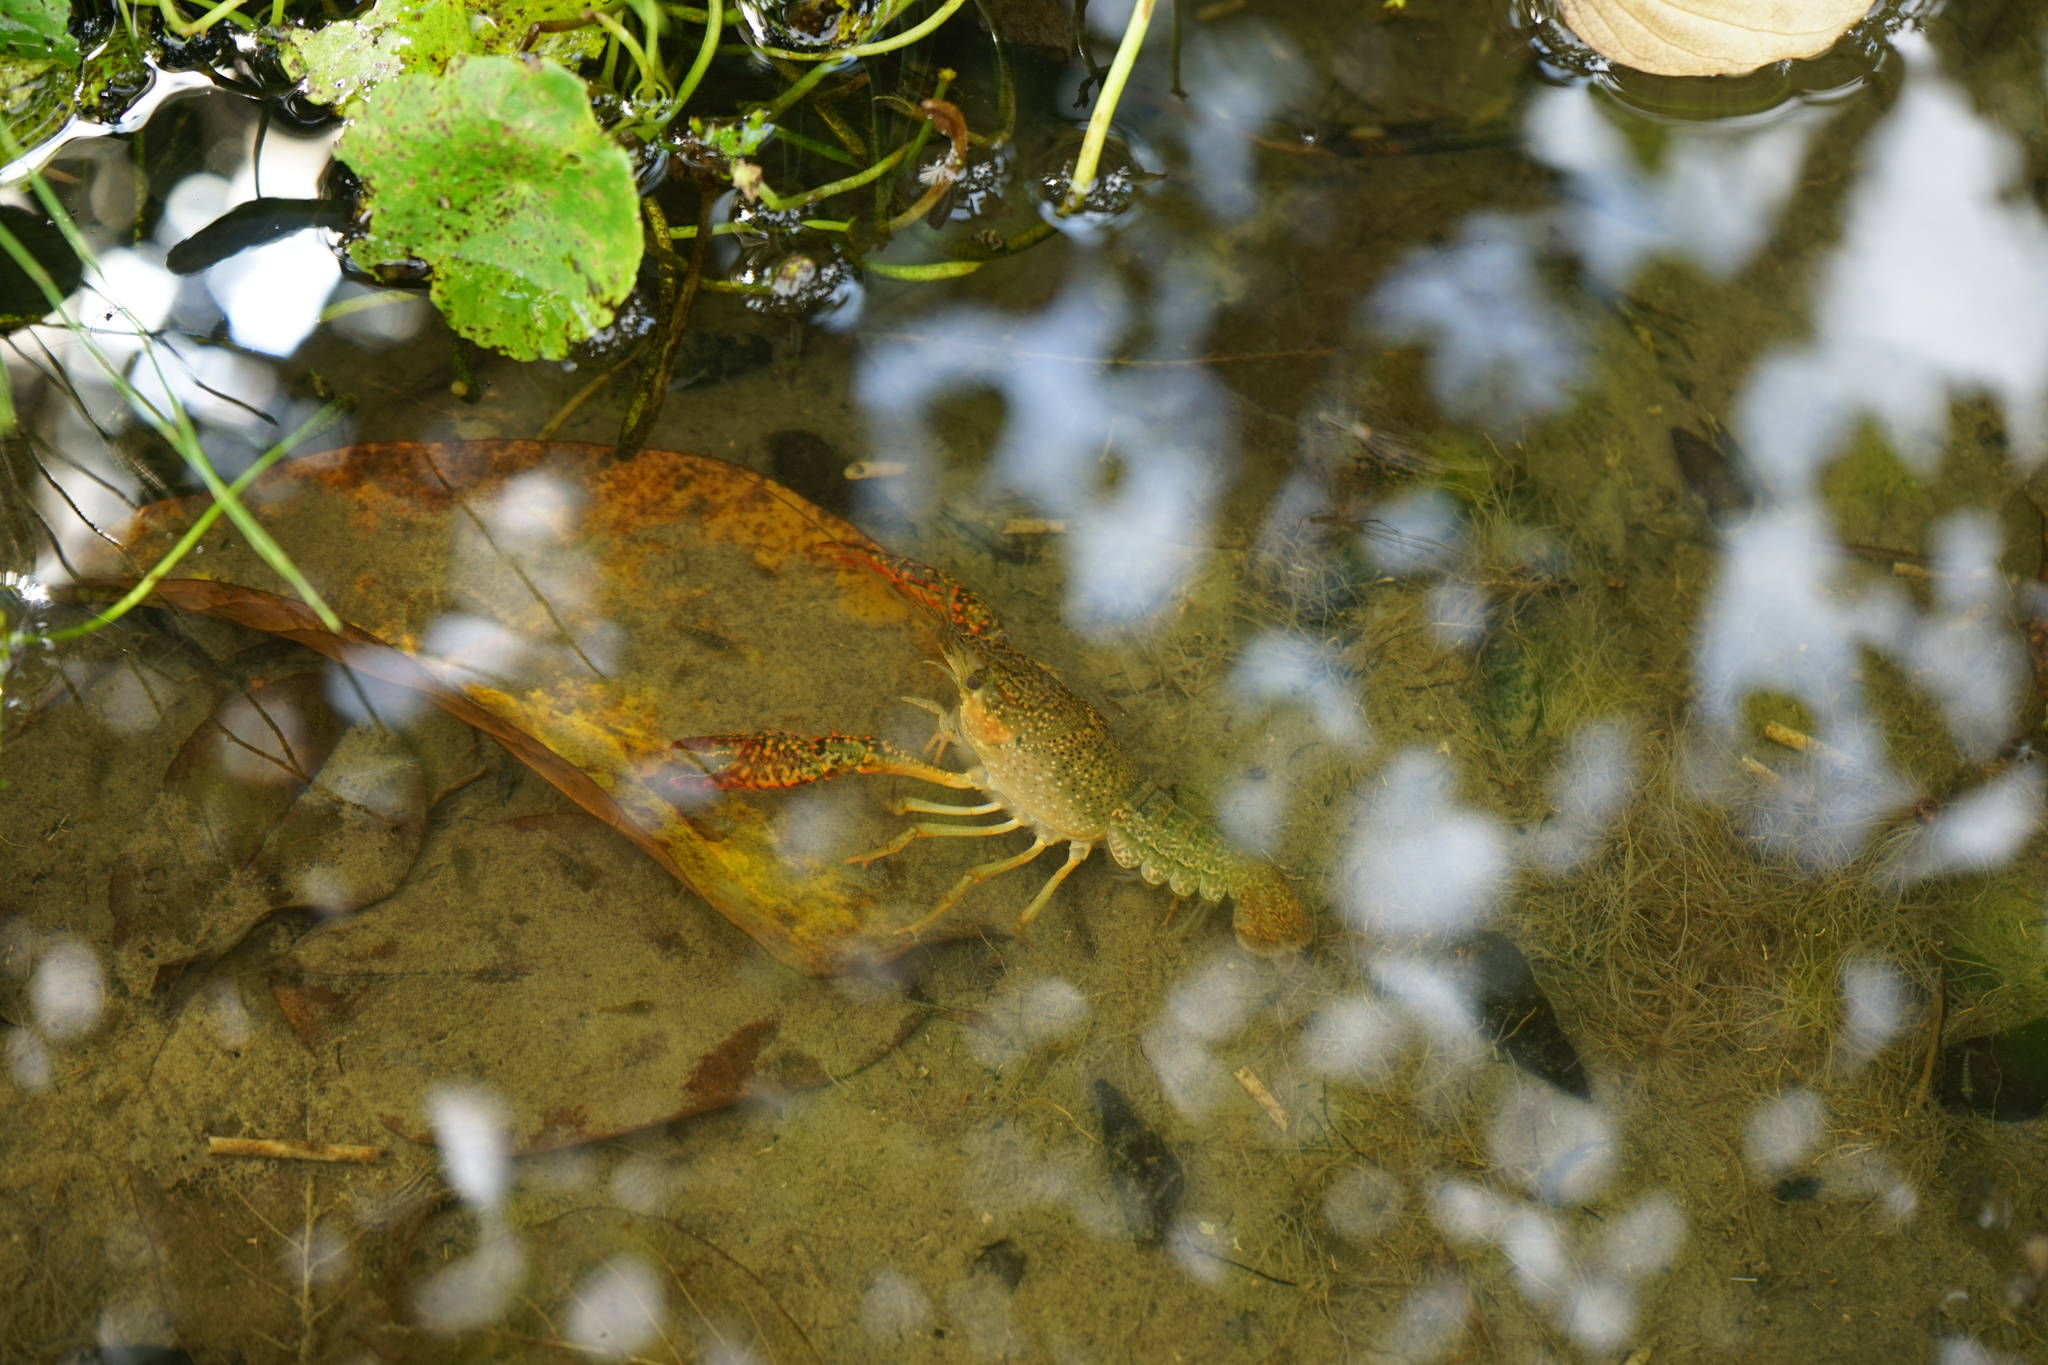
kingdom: Animalia
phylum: Arthropoda
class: Malacostraca
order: Decapoda
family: Cambaridae
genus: Procambarus
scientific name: Procambarus clarkii
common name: Red swamp crayfish
